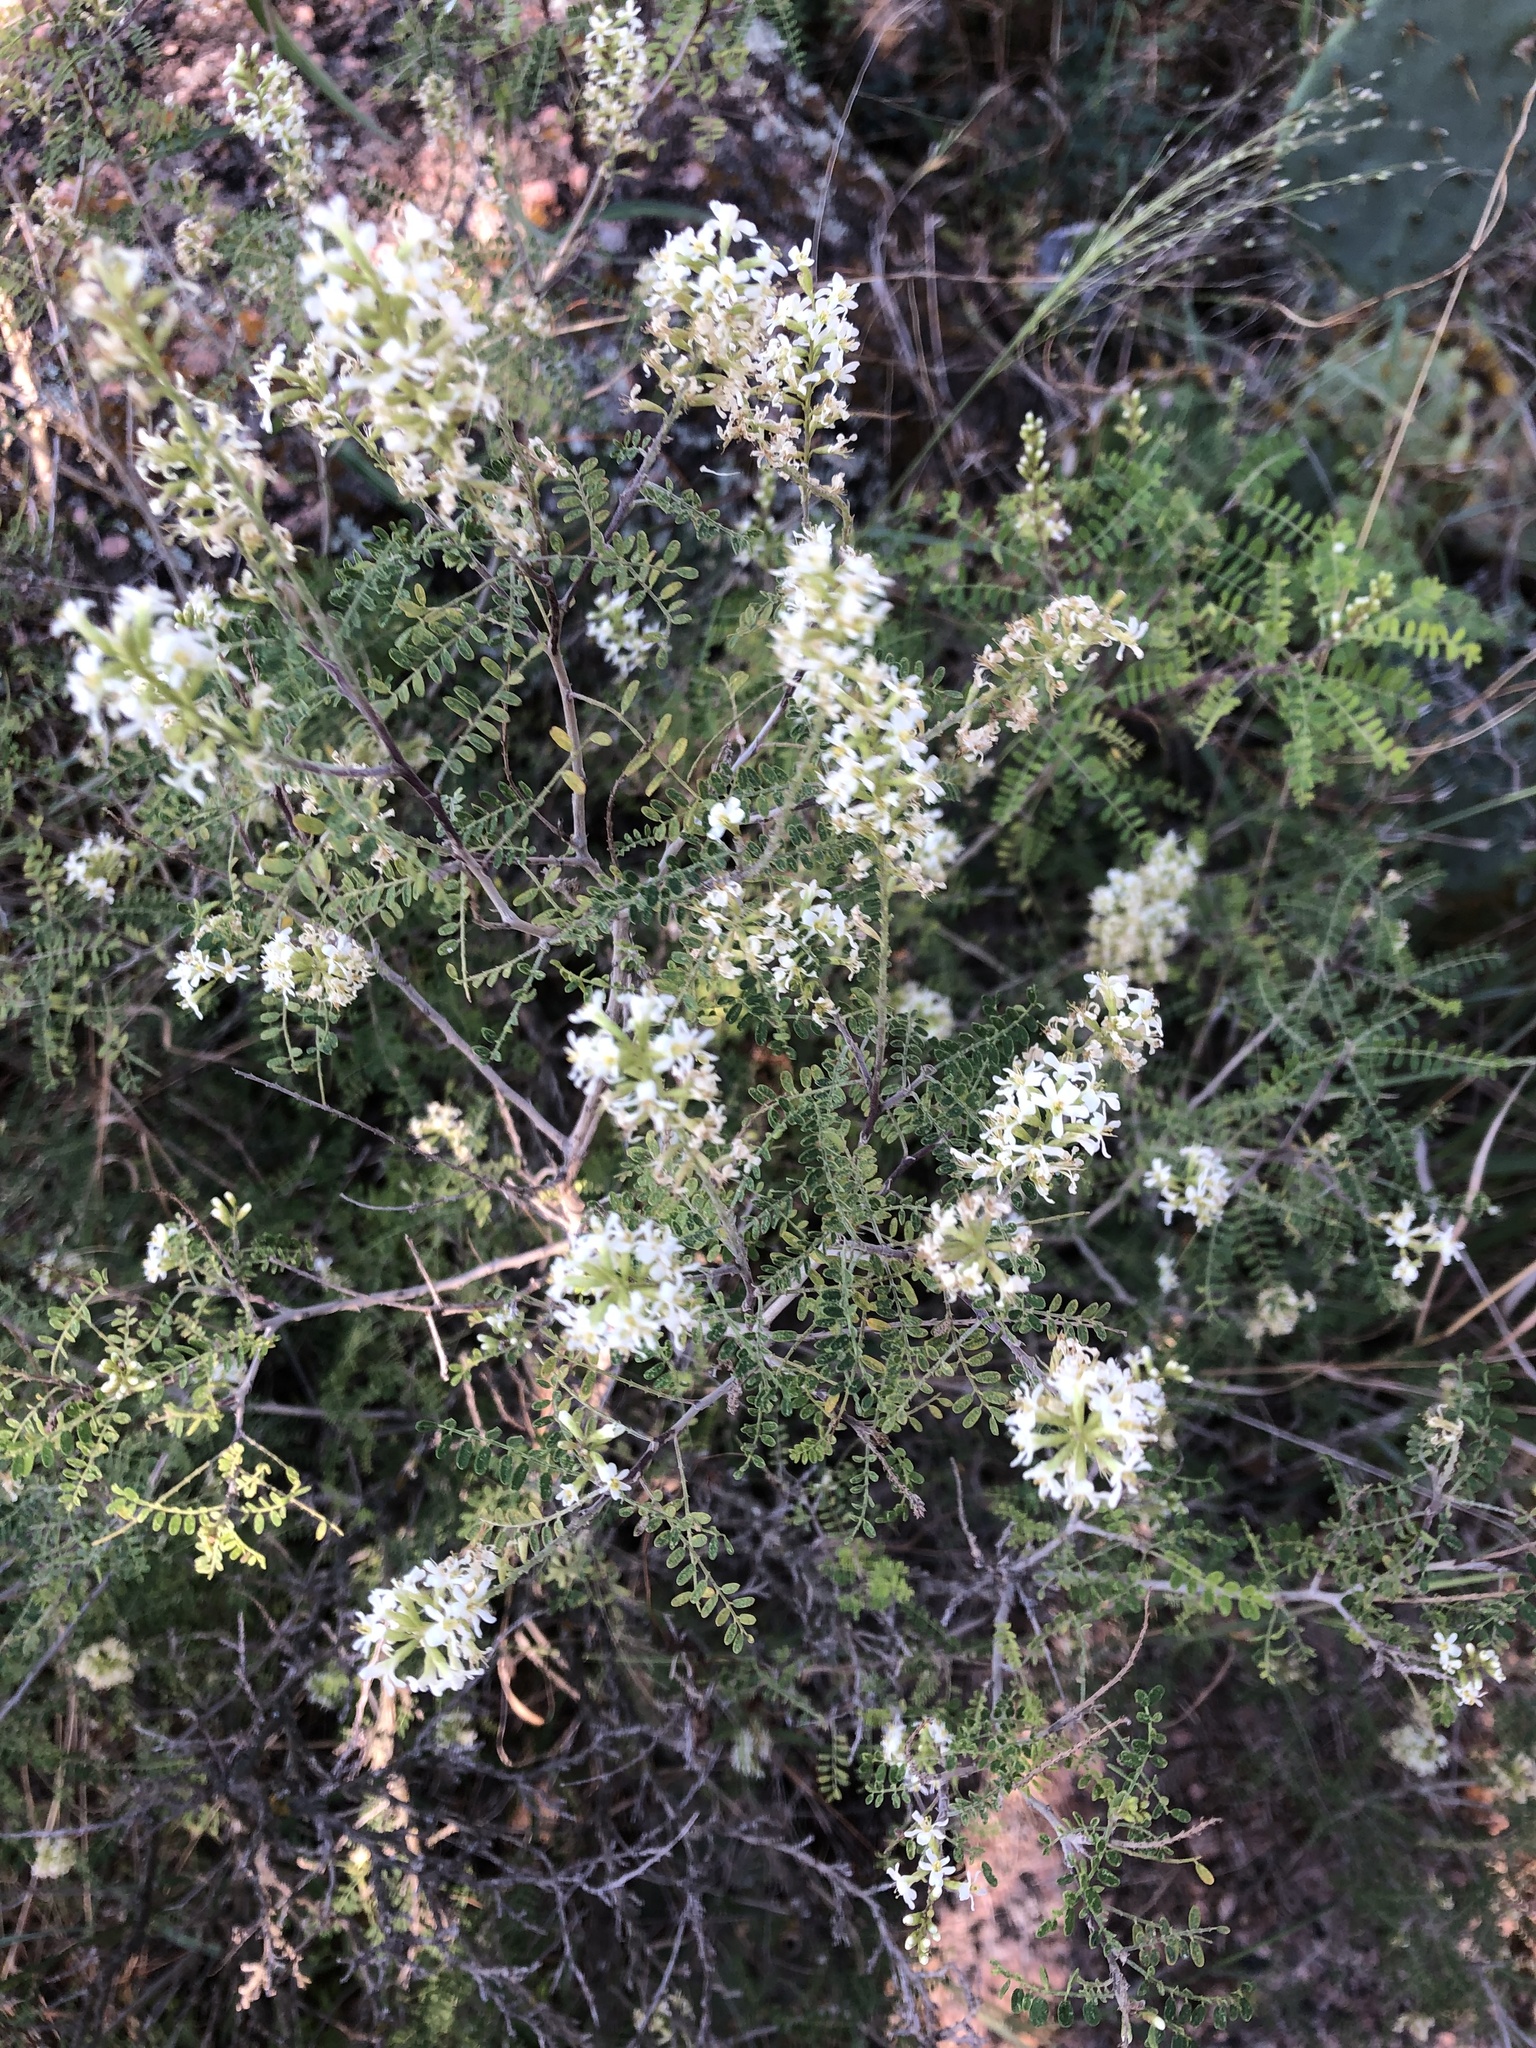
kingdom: Plantae
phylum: Tracheophyta
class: Magnoliopsida
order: Fabales
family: Fabaceae
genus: Eysenhardtia
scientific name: Eysenhardtia texana
